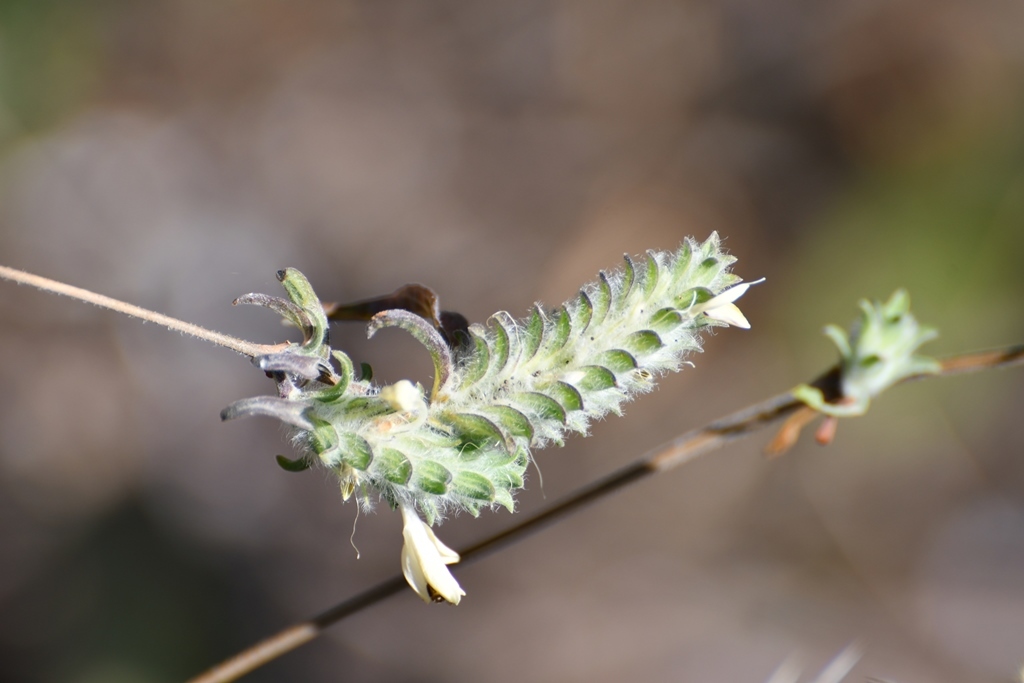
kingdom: Plantae
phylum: Tracheophyta
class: Magnoliopsida
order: Lamiales
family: Acanthaceae
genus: Tetramerium
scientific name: Tetramerium nervosum
